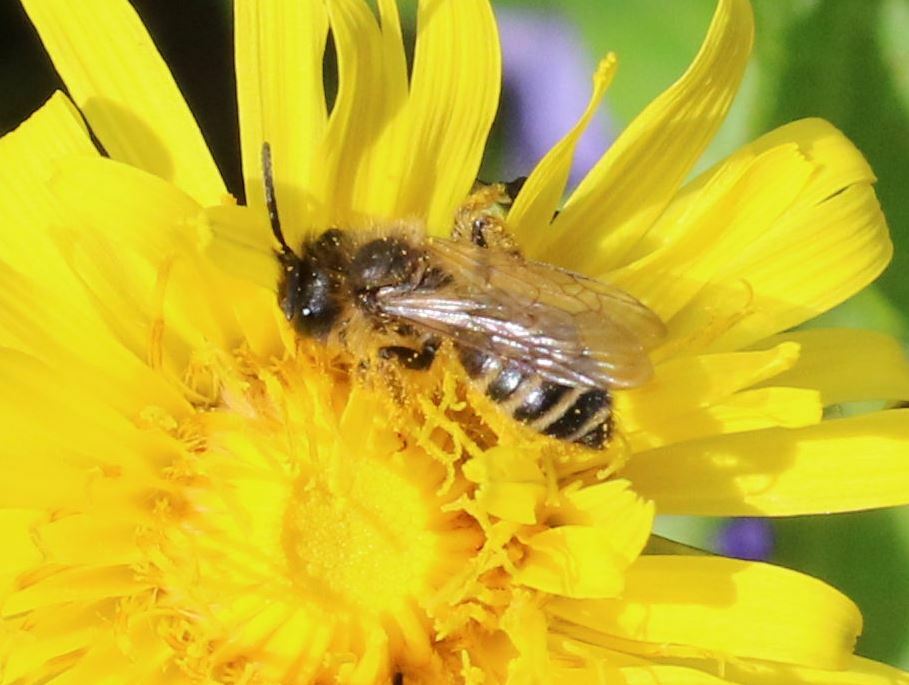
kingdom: Animalia
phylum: Arthropoda
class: Insecta
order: Hymenoptera
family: Andrenidae
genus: Andrena
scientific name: Andrena flavipes
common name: Yellow-legged mining bee
